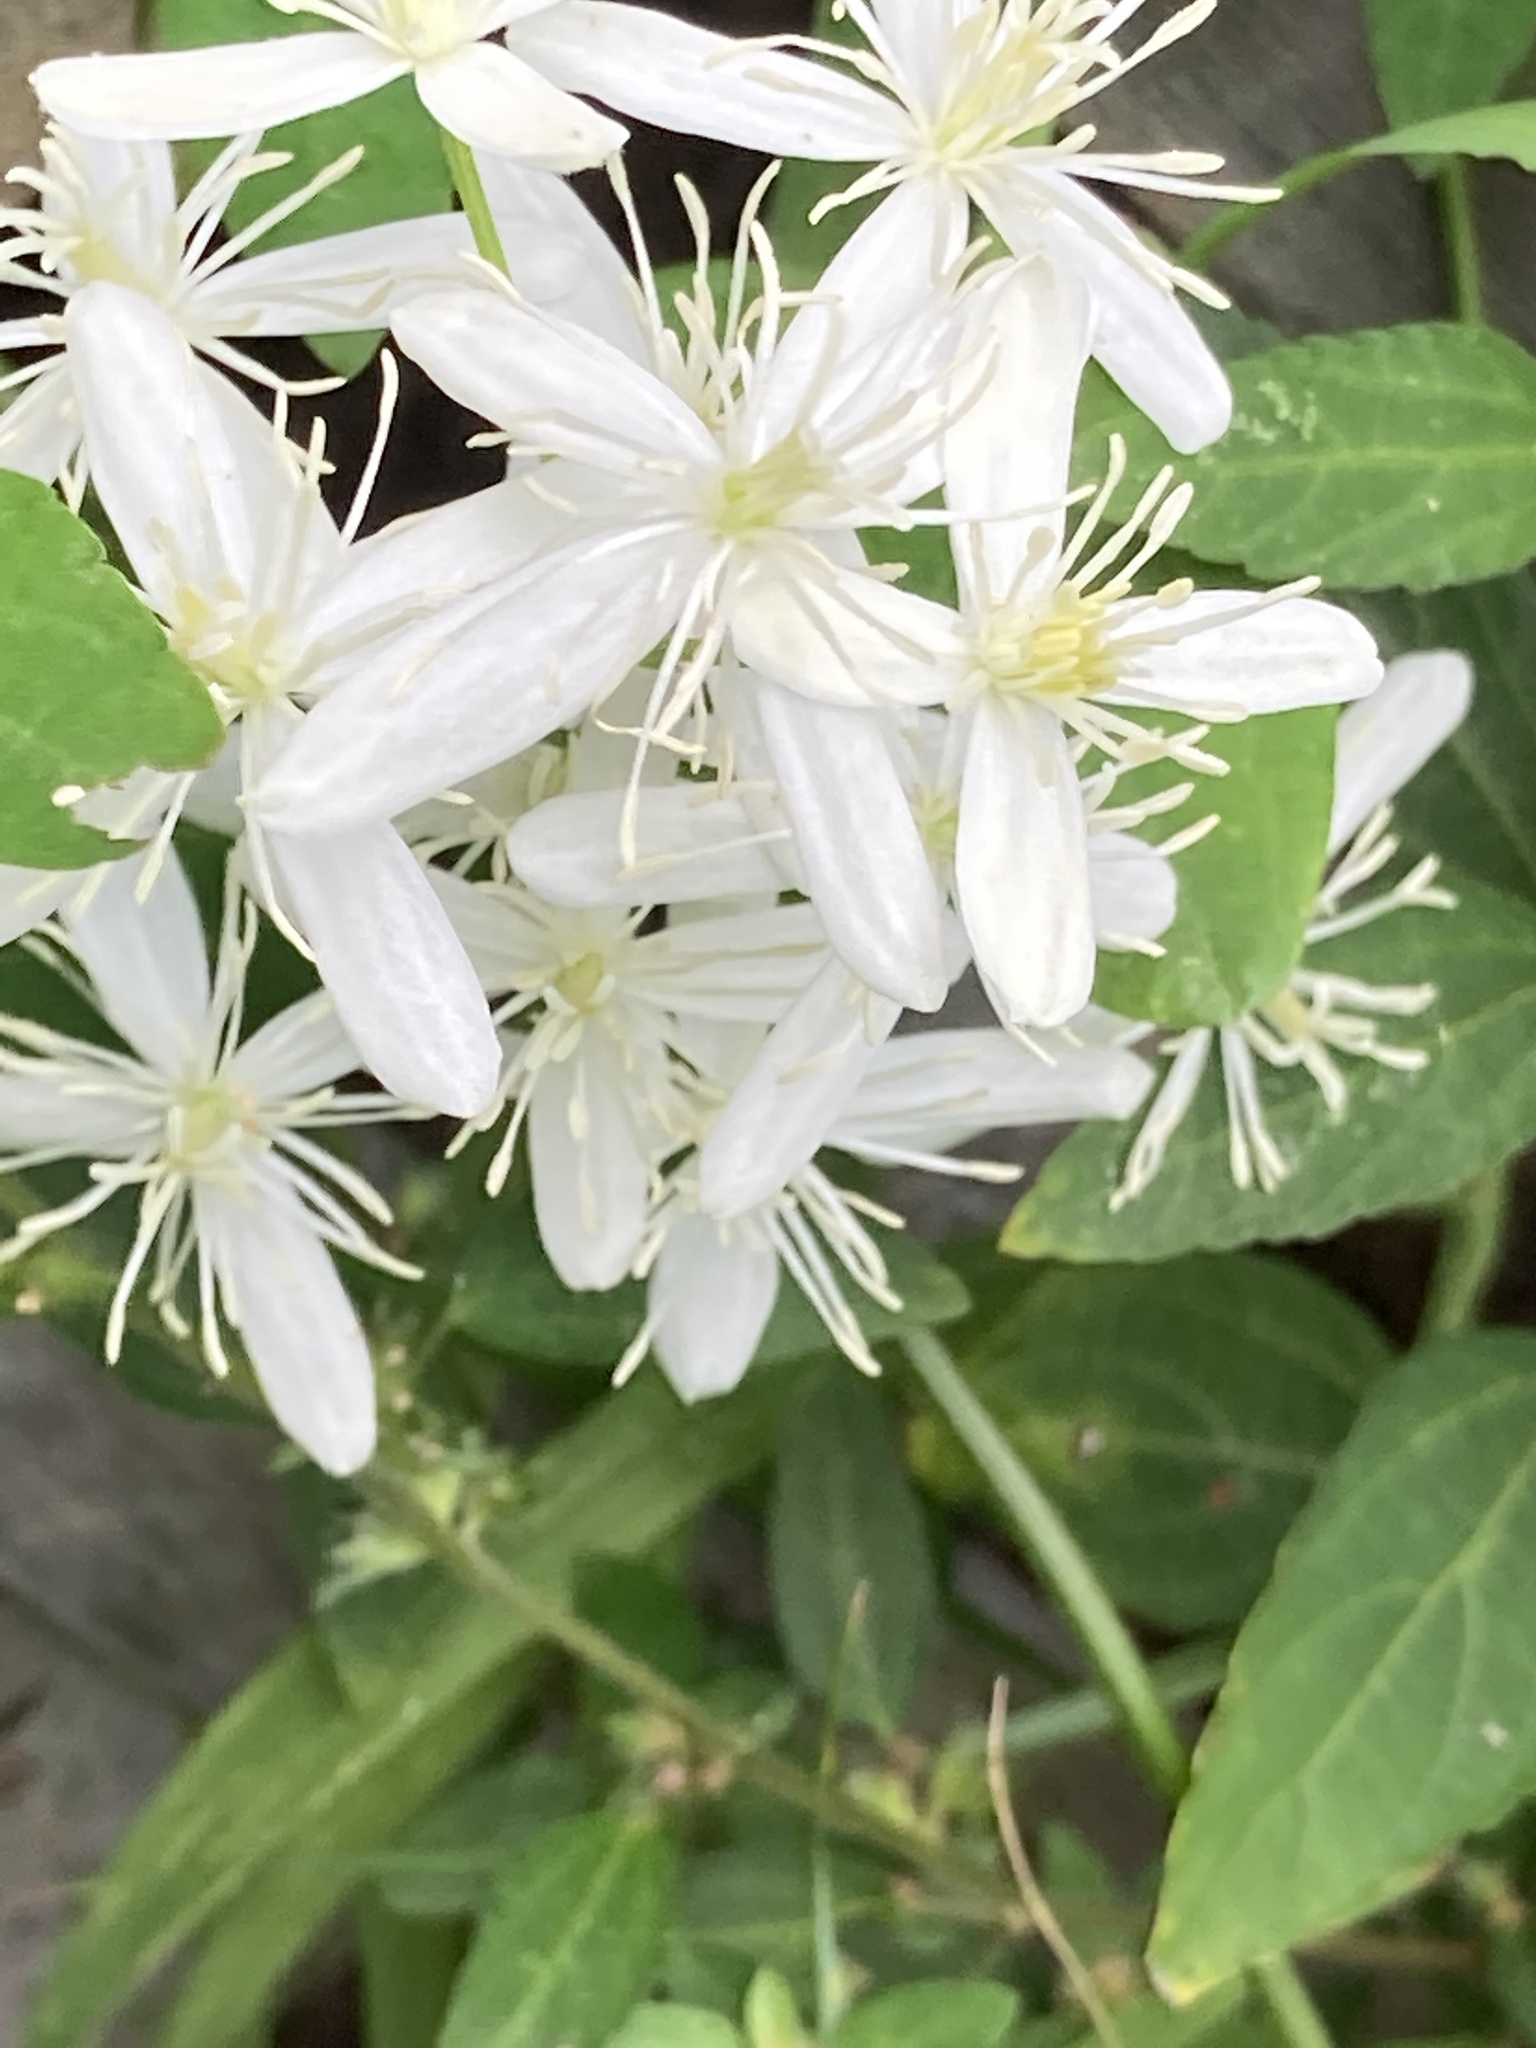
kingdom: Plantae
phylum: Tracheophyta
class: Magnoliopsida
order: Ranunculales
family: Ranunculaceae
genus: Clematis
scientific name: Clematis terniflora
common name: Sweet autumn clematis
